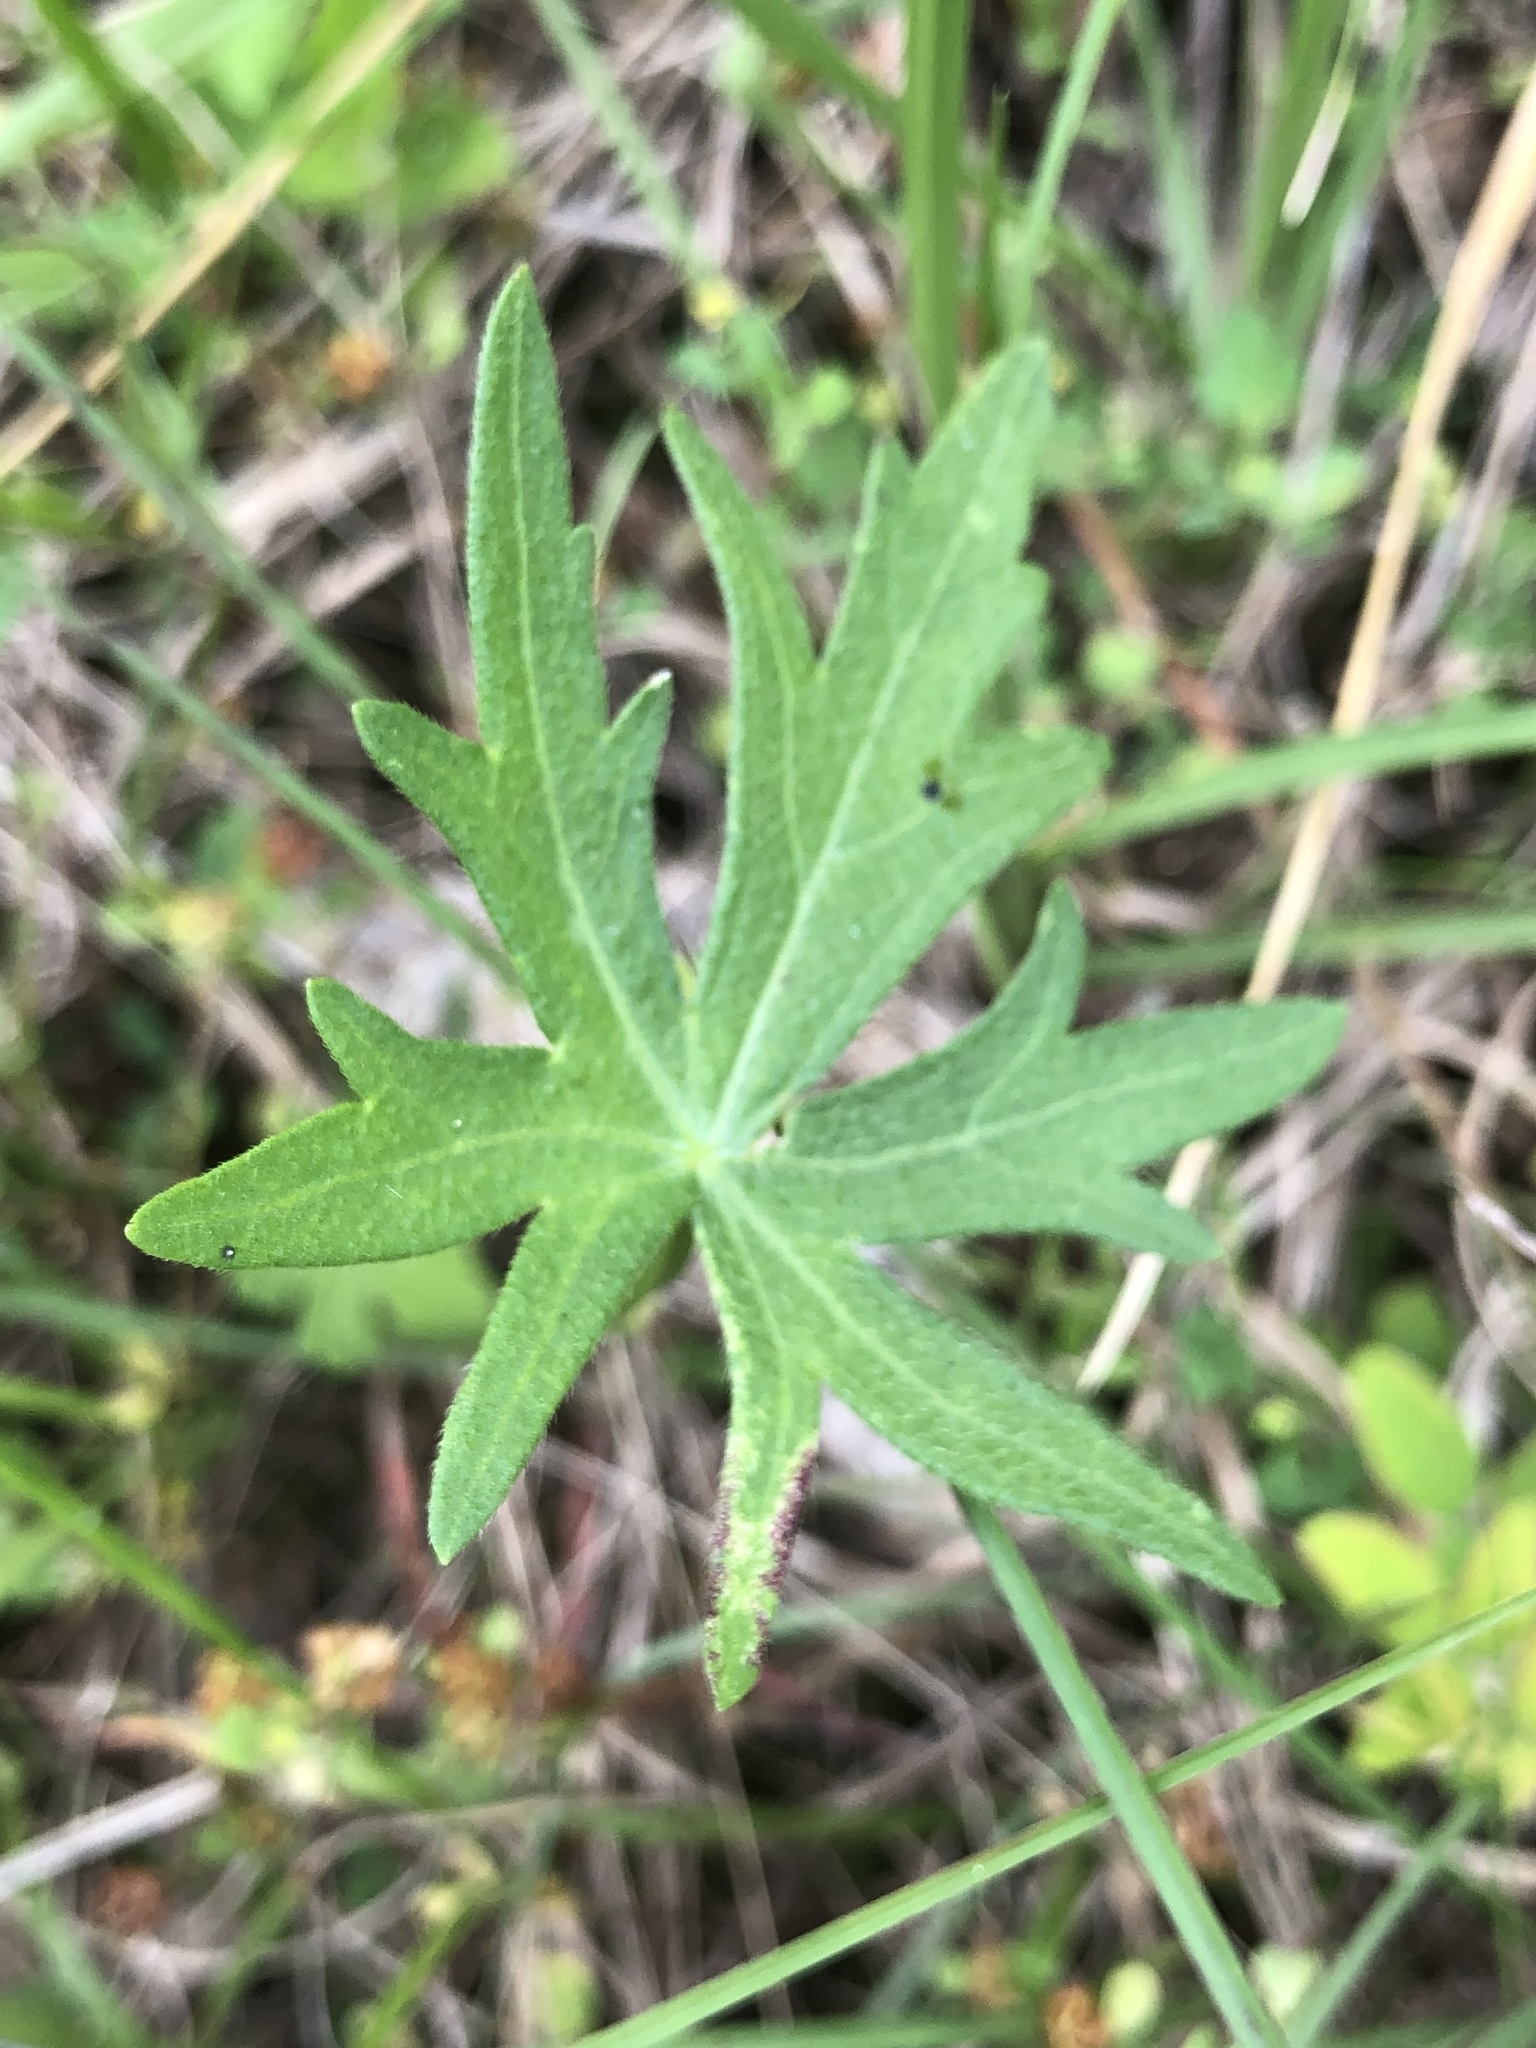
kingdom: Plantae
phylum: Tracheophyta
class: Magnoliopsida
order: Malvales
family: Malvaceae
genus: Callirhoe
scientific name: Callirhoe papaver
